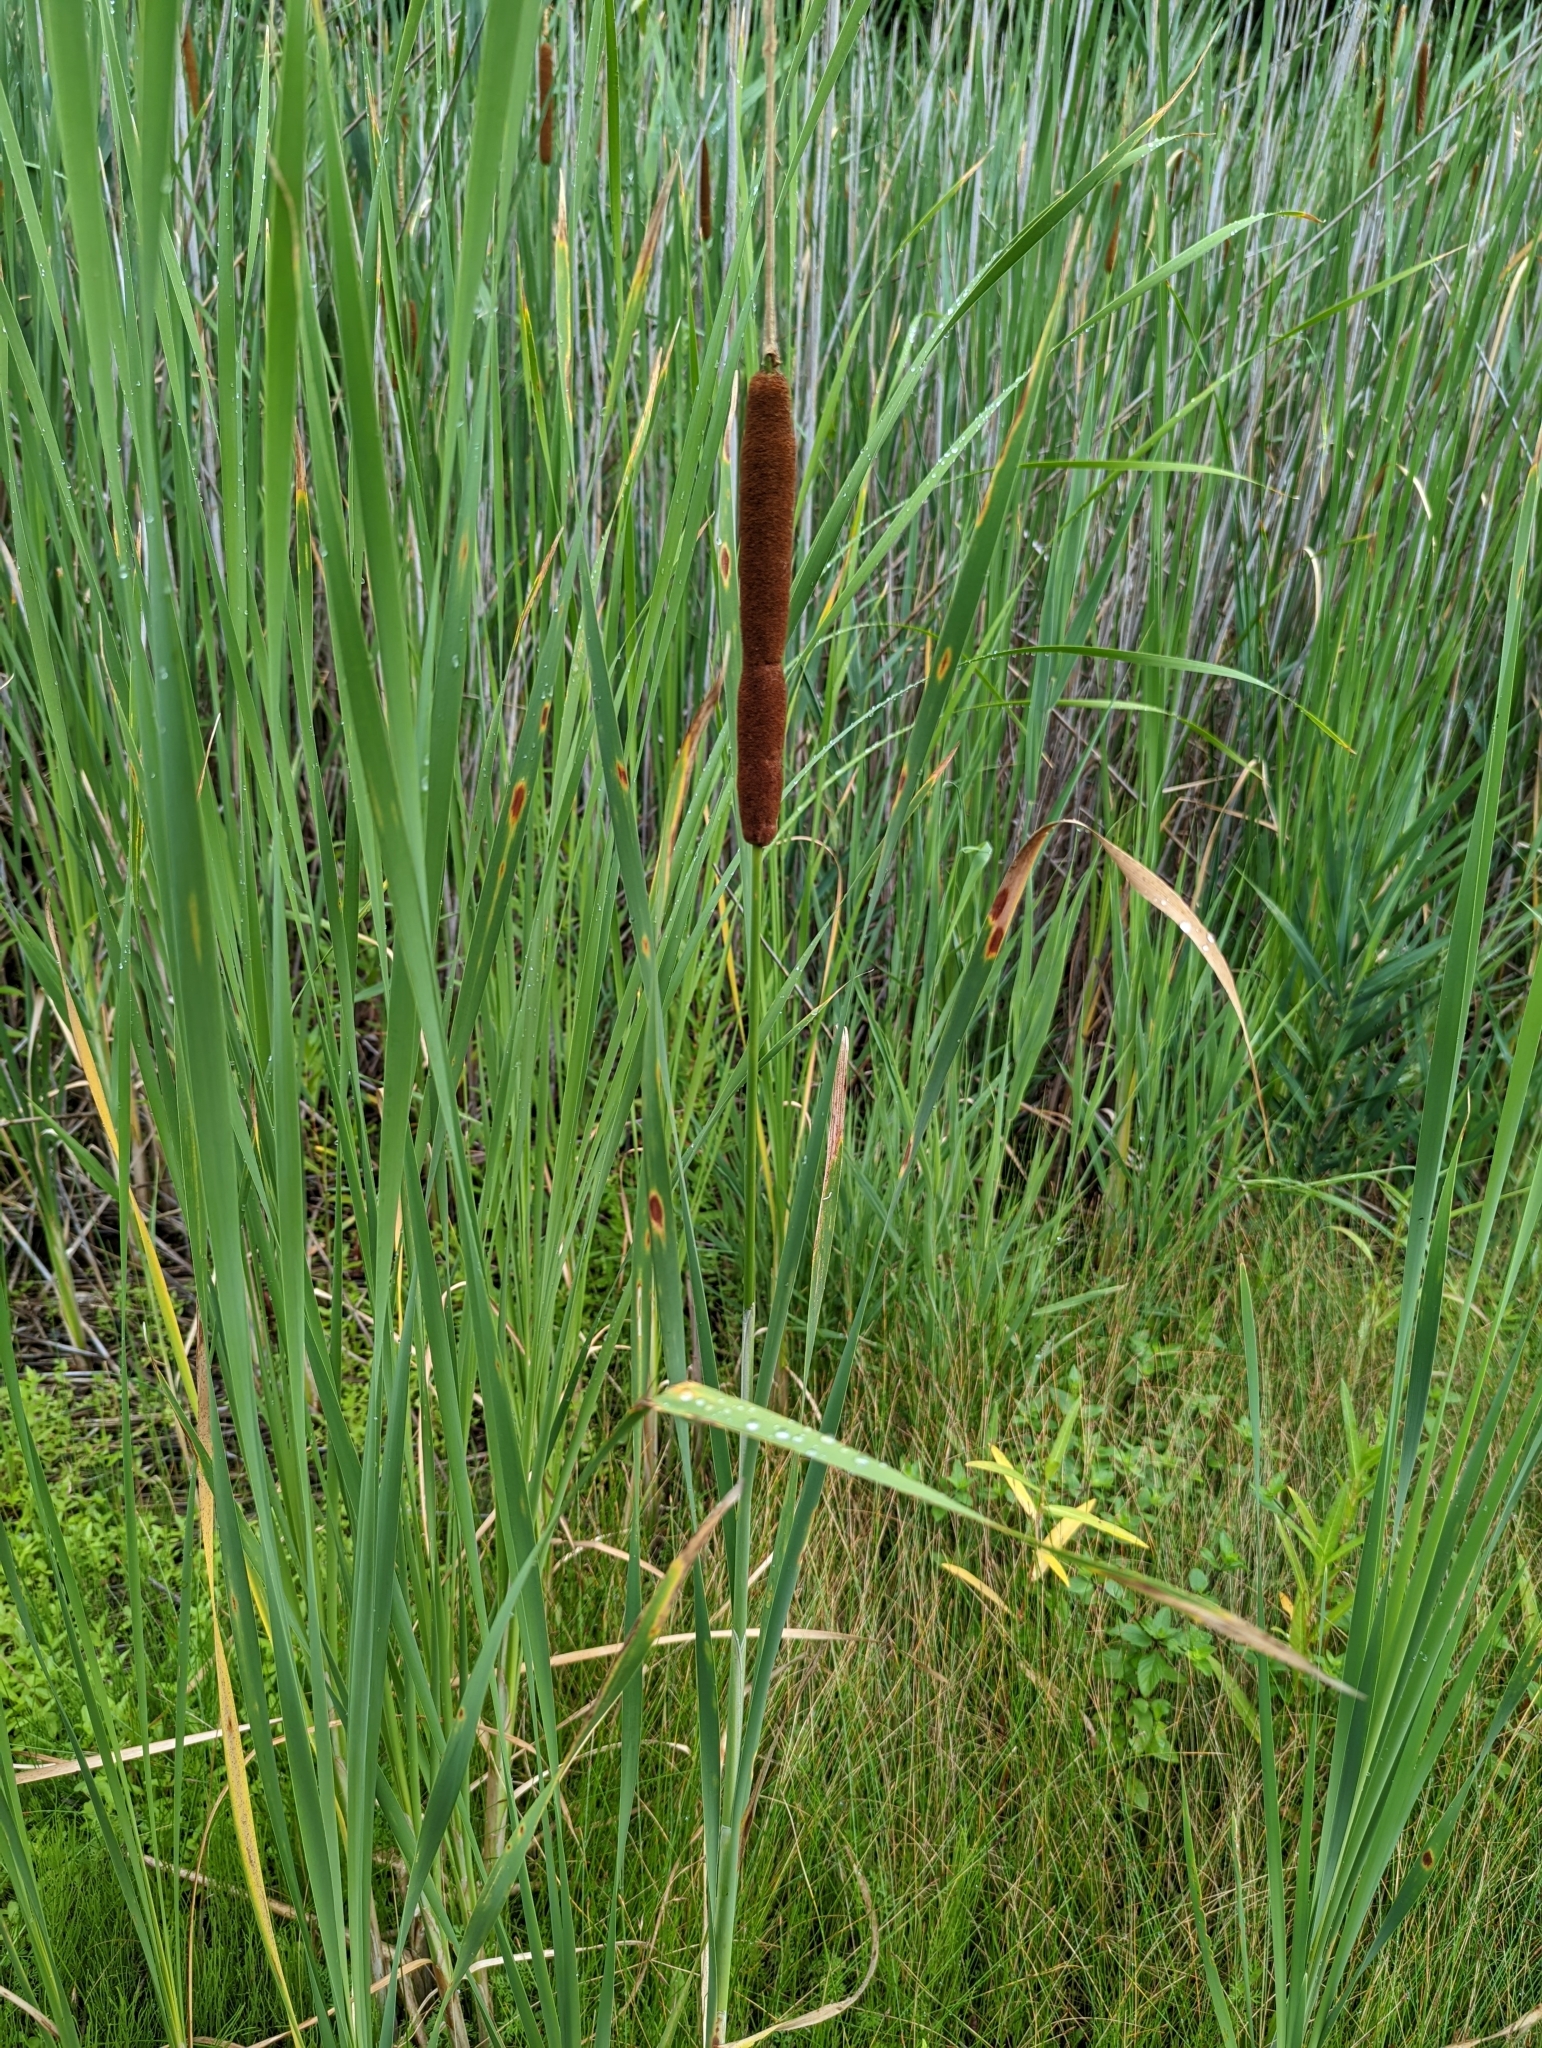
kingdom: Plantae
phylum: Tracheophyta
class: Liliopsida
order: Poales
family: Typhaceae
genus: Typha
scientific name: Typha glauca
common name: Blue cattail
